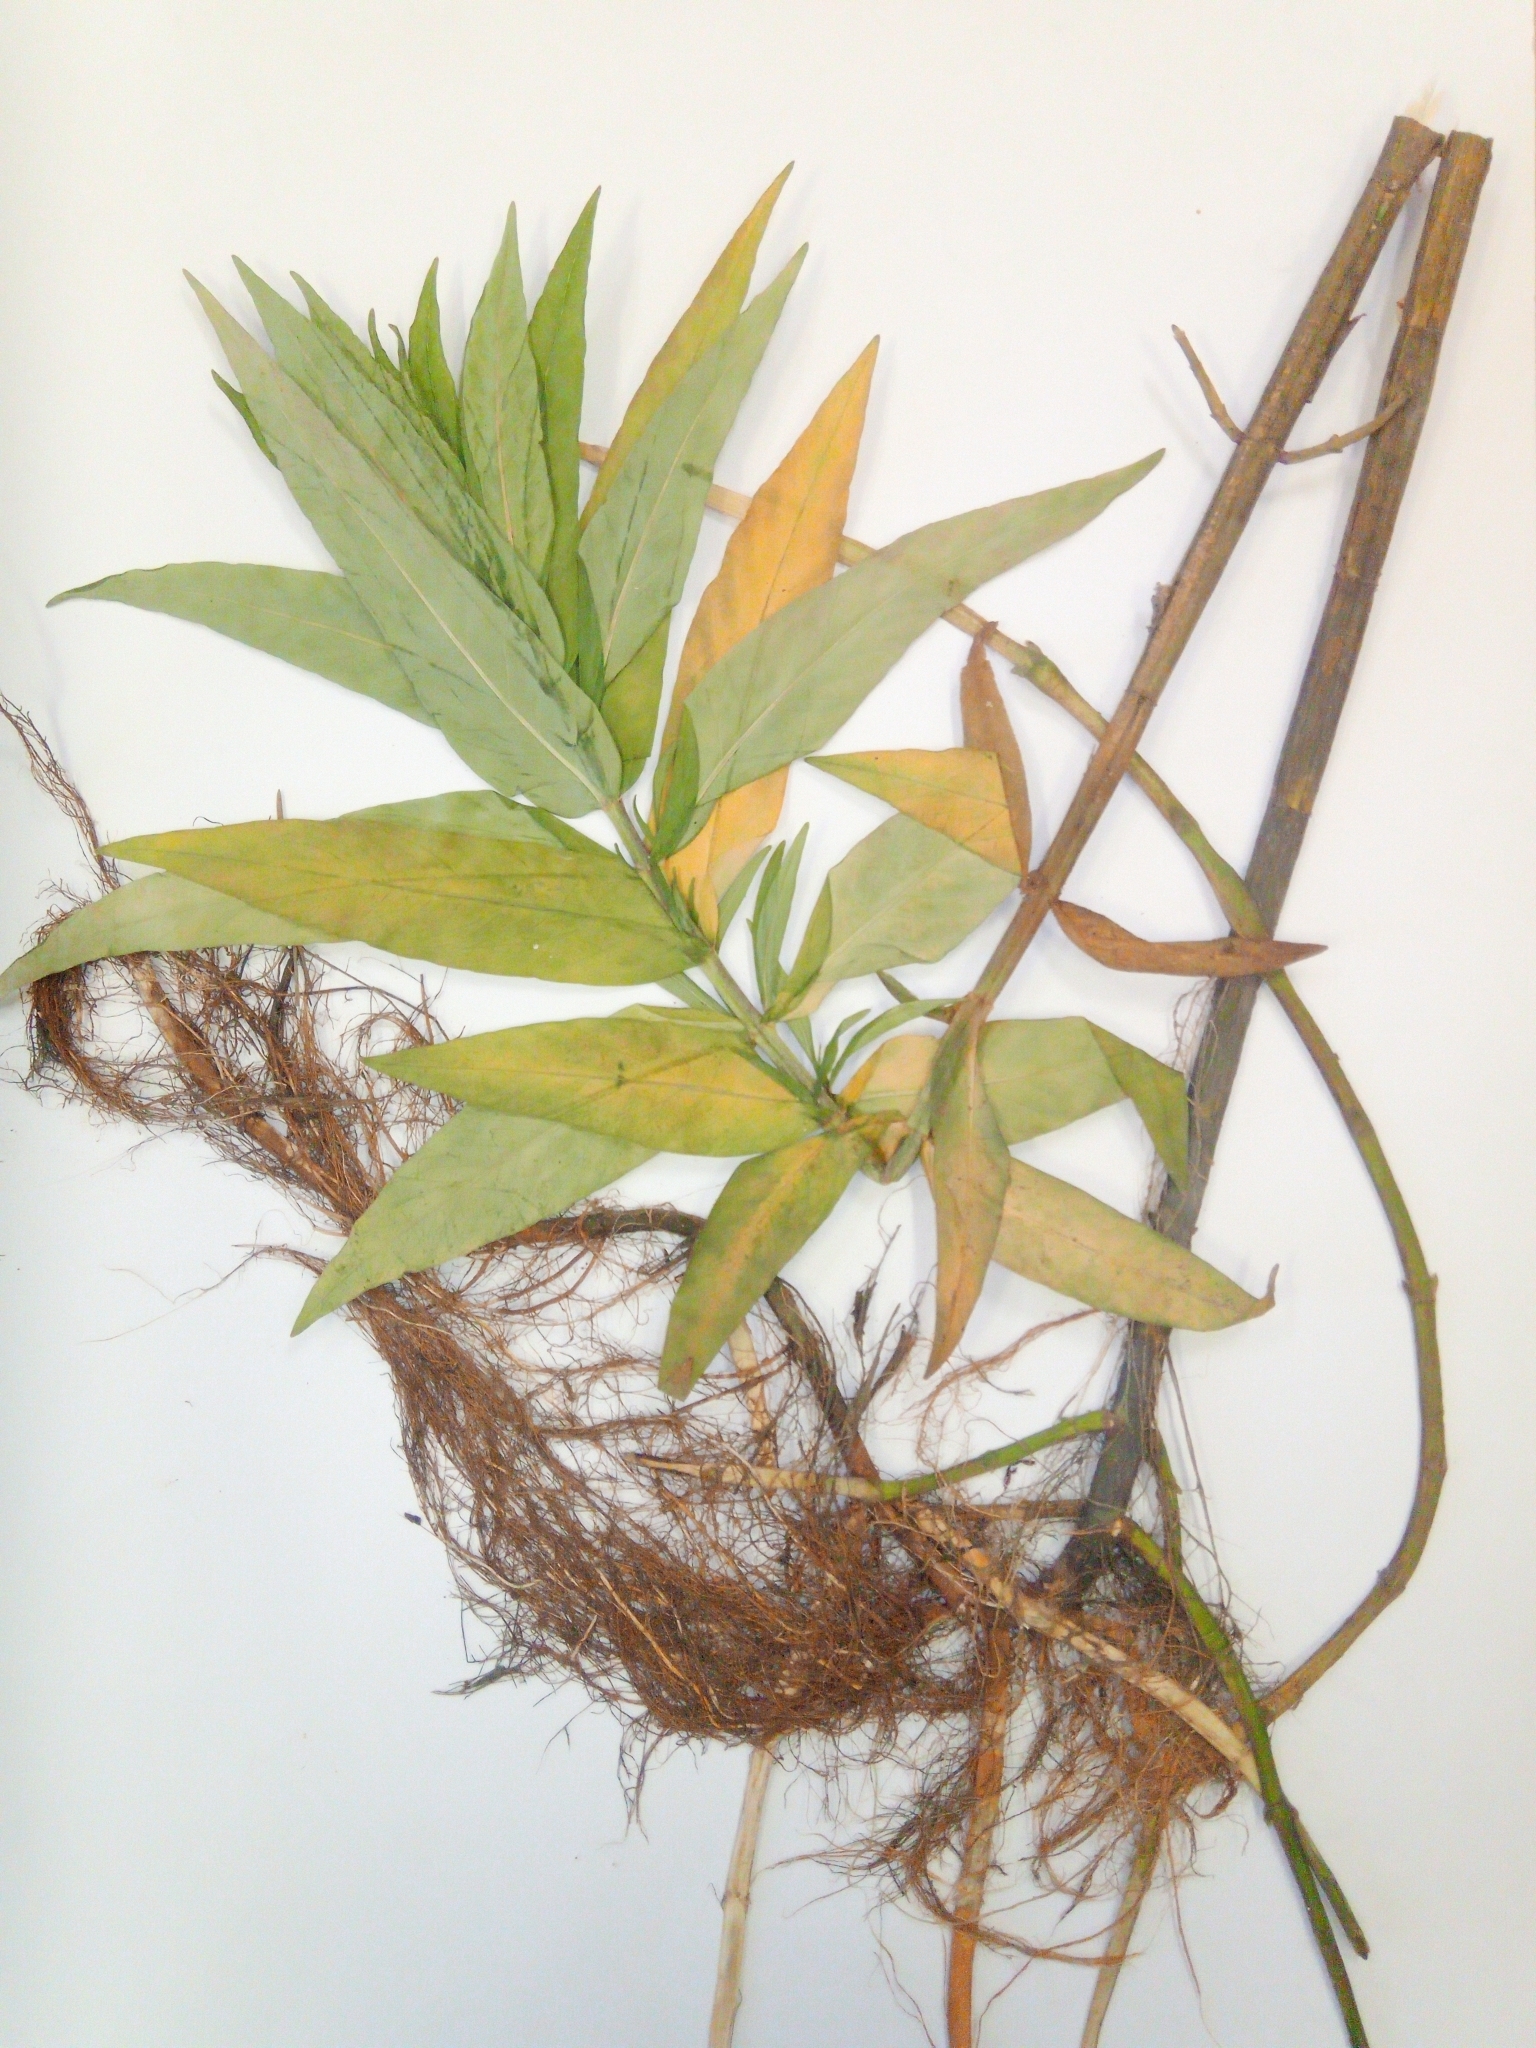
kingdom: Plantae
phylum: Tracheophyta
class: Magnoliopsida
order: Ericales
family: Primulaceae
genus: Lysimachia
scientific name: Lysimachia thyrsiflora
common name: Tufted loosestrife
